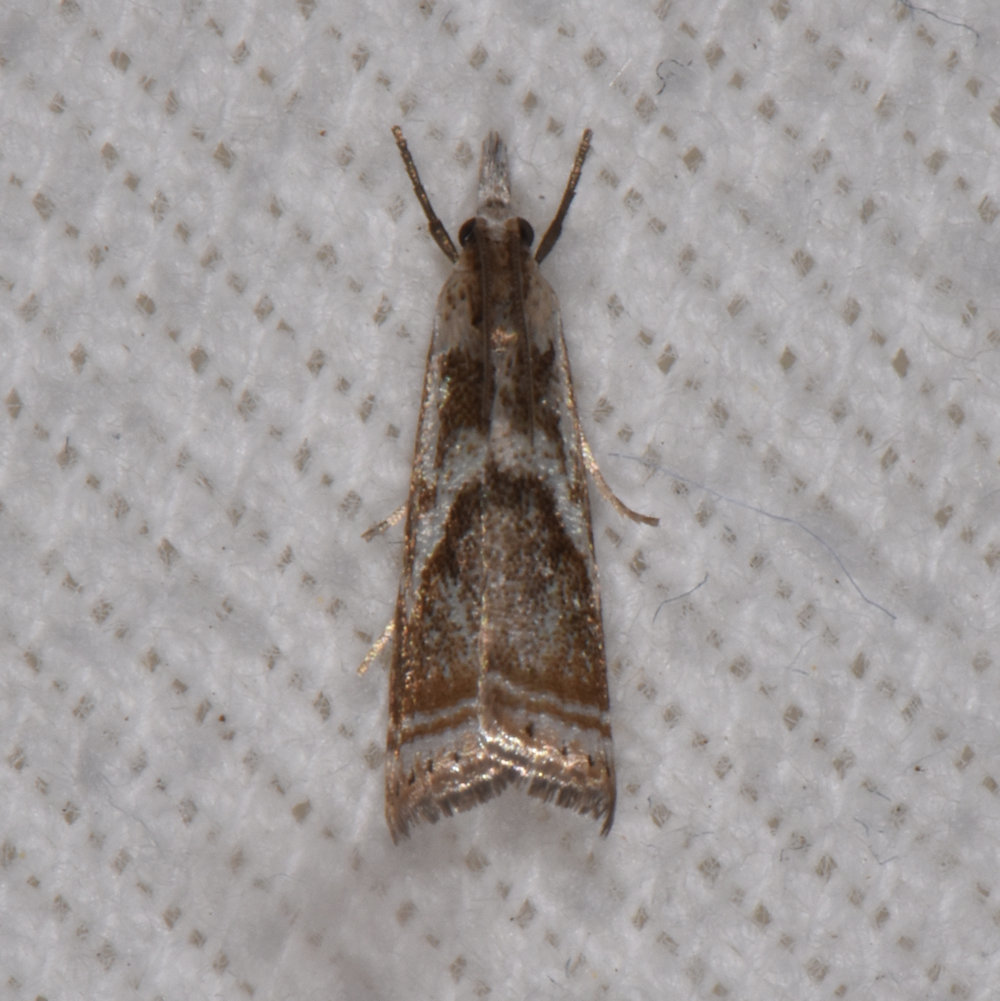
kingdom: Animalia
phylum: Arthropoda
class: Insecta
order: Lepidoptera
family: Crambidae
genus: Microcrambus
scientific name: Microcrambus elegans
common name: Elegant grass-veneer
